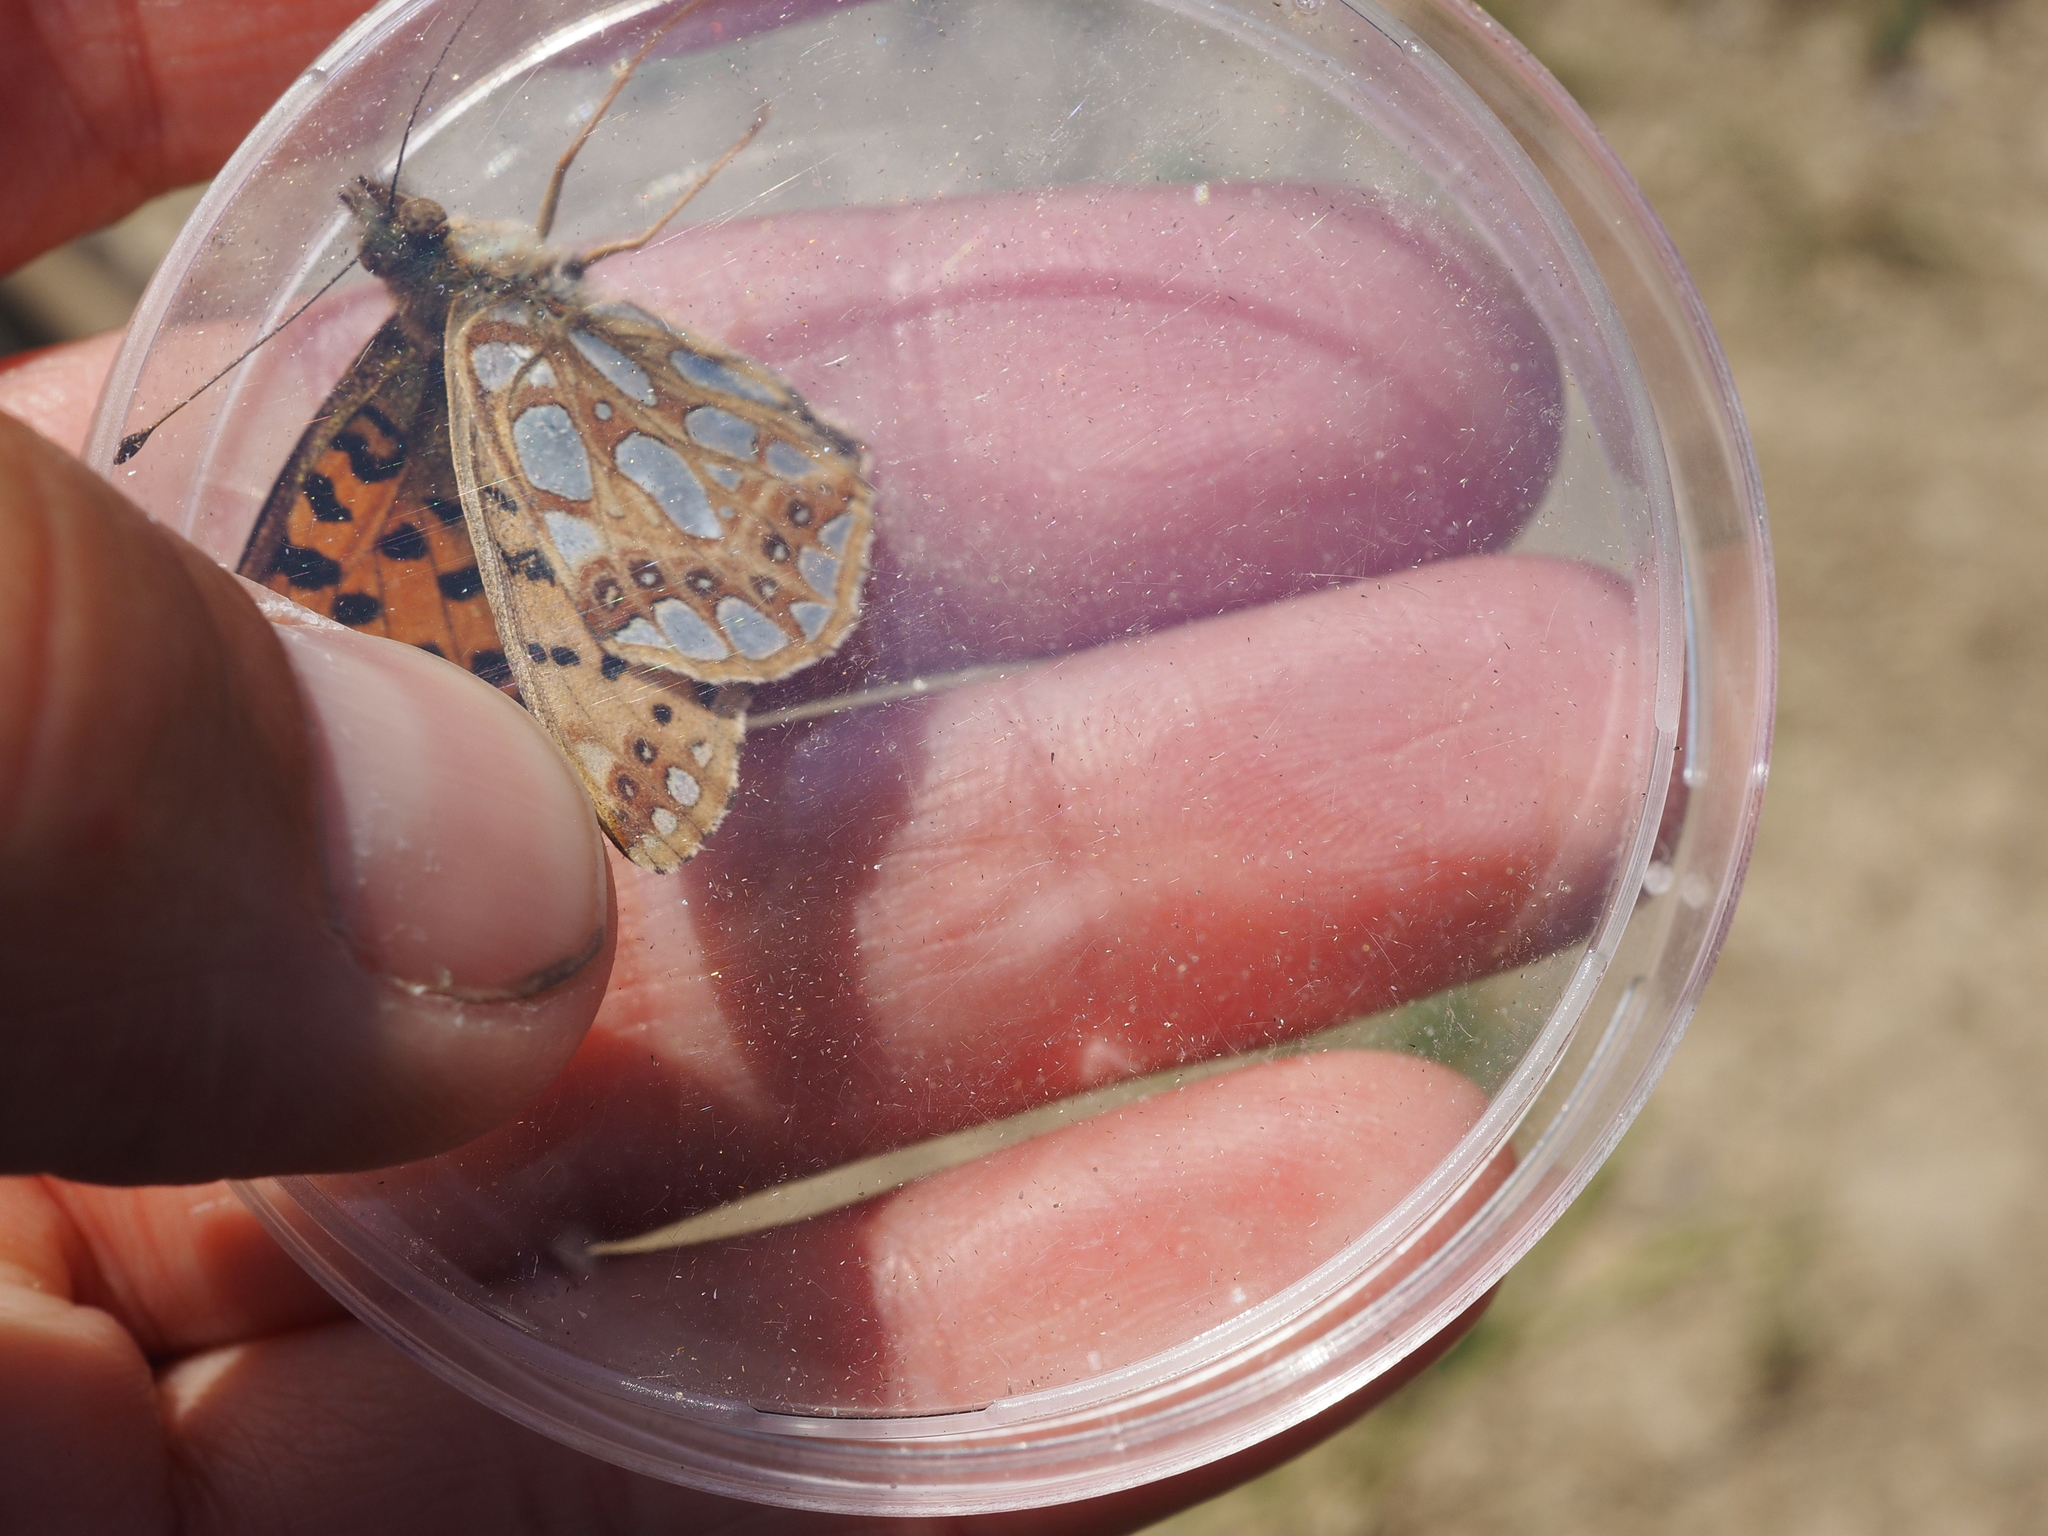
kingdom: Animalia
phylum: Arthropoda
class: Insecta
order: Lepidoptera
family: Nymphalidae
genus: Issoria
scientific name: Issoria lathonia
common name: Queen of spain fritillary
